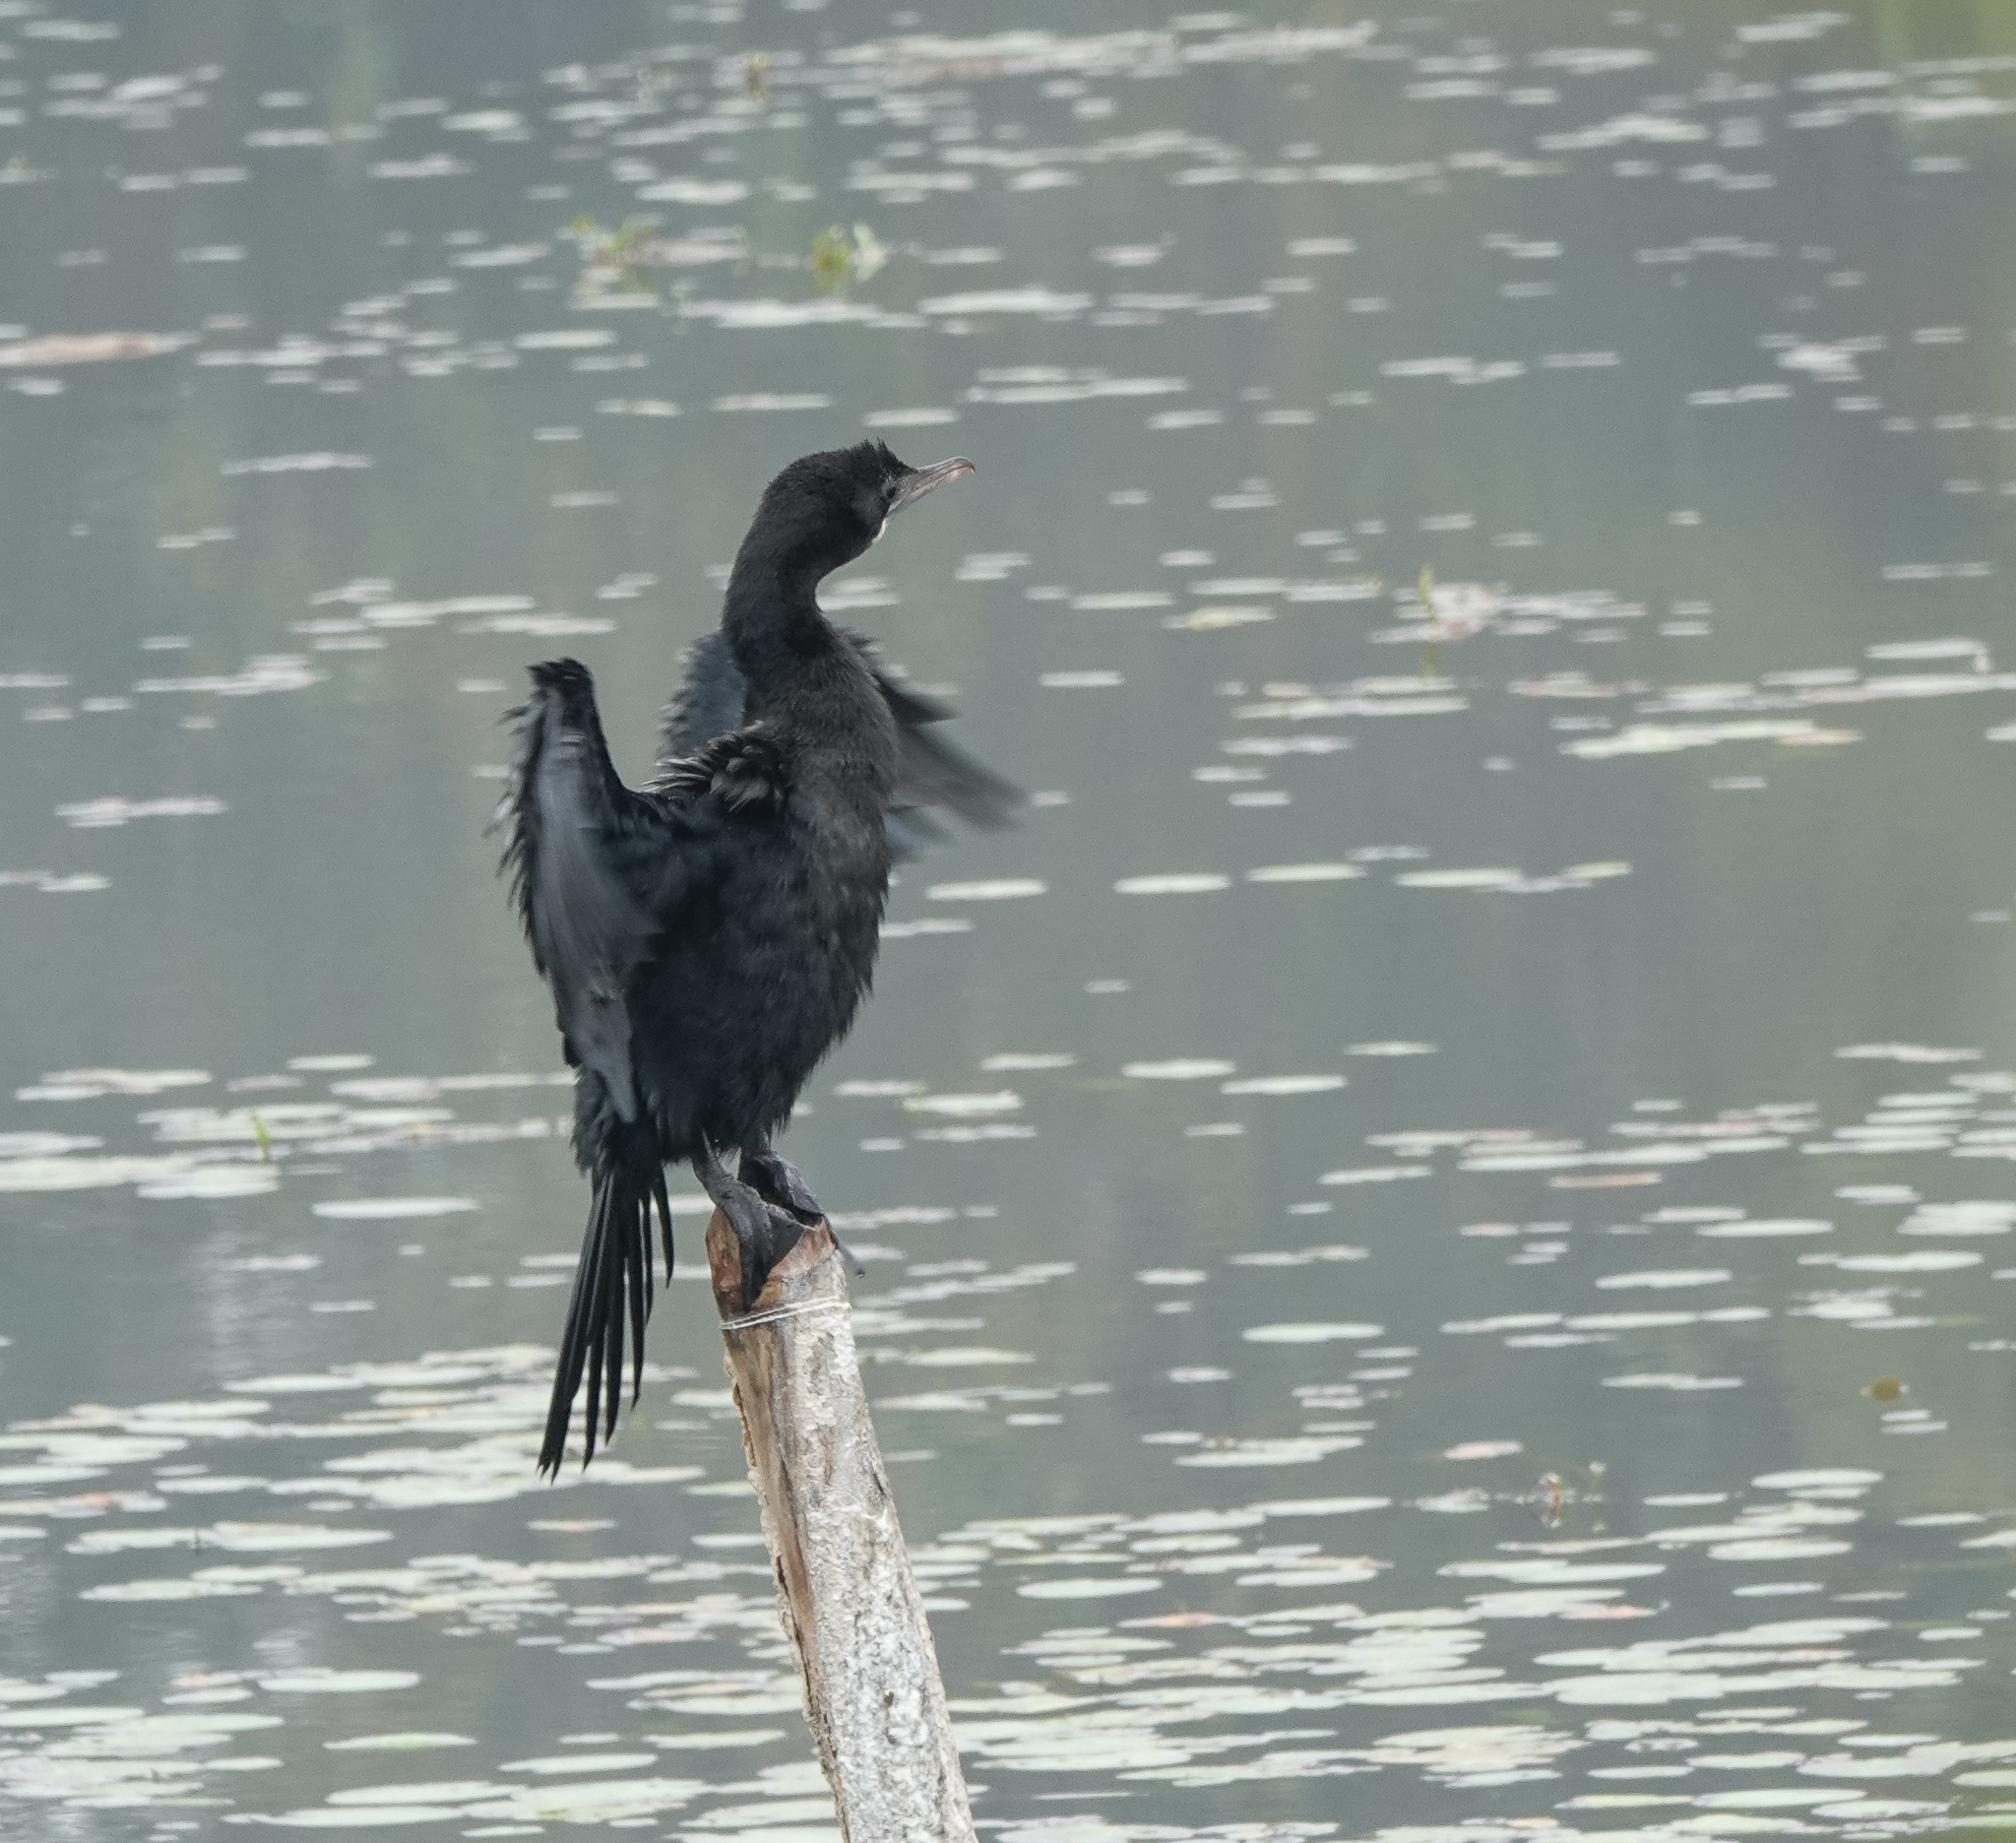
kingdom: Animalia
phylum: Chordata
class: Aves
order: Suliformes
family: Phalacrocoracidae
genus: Microcarbo
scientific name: Microcarbo niger
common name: Little cormorant
